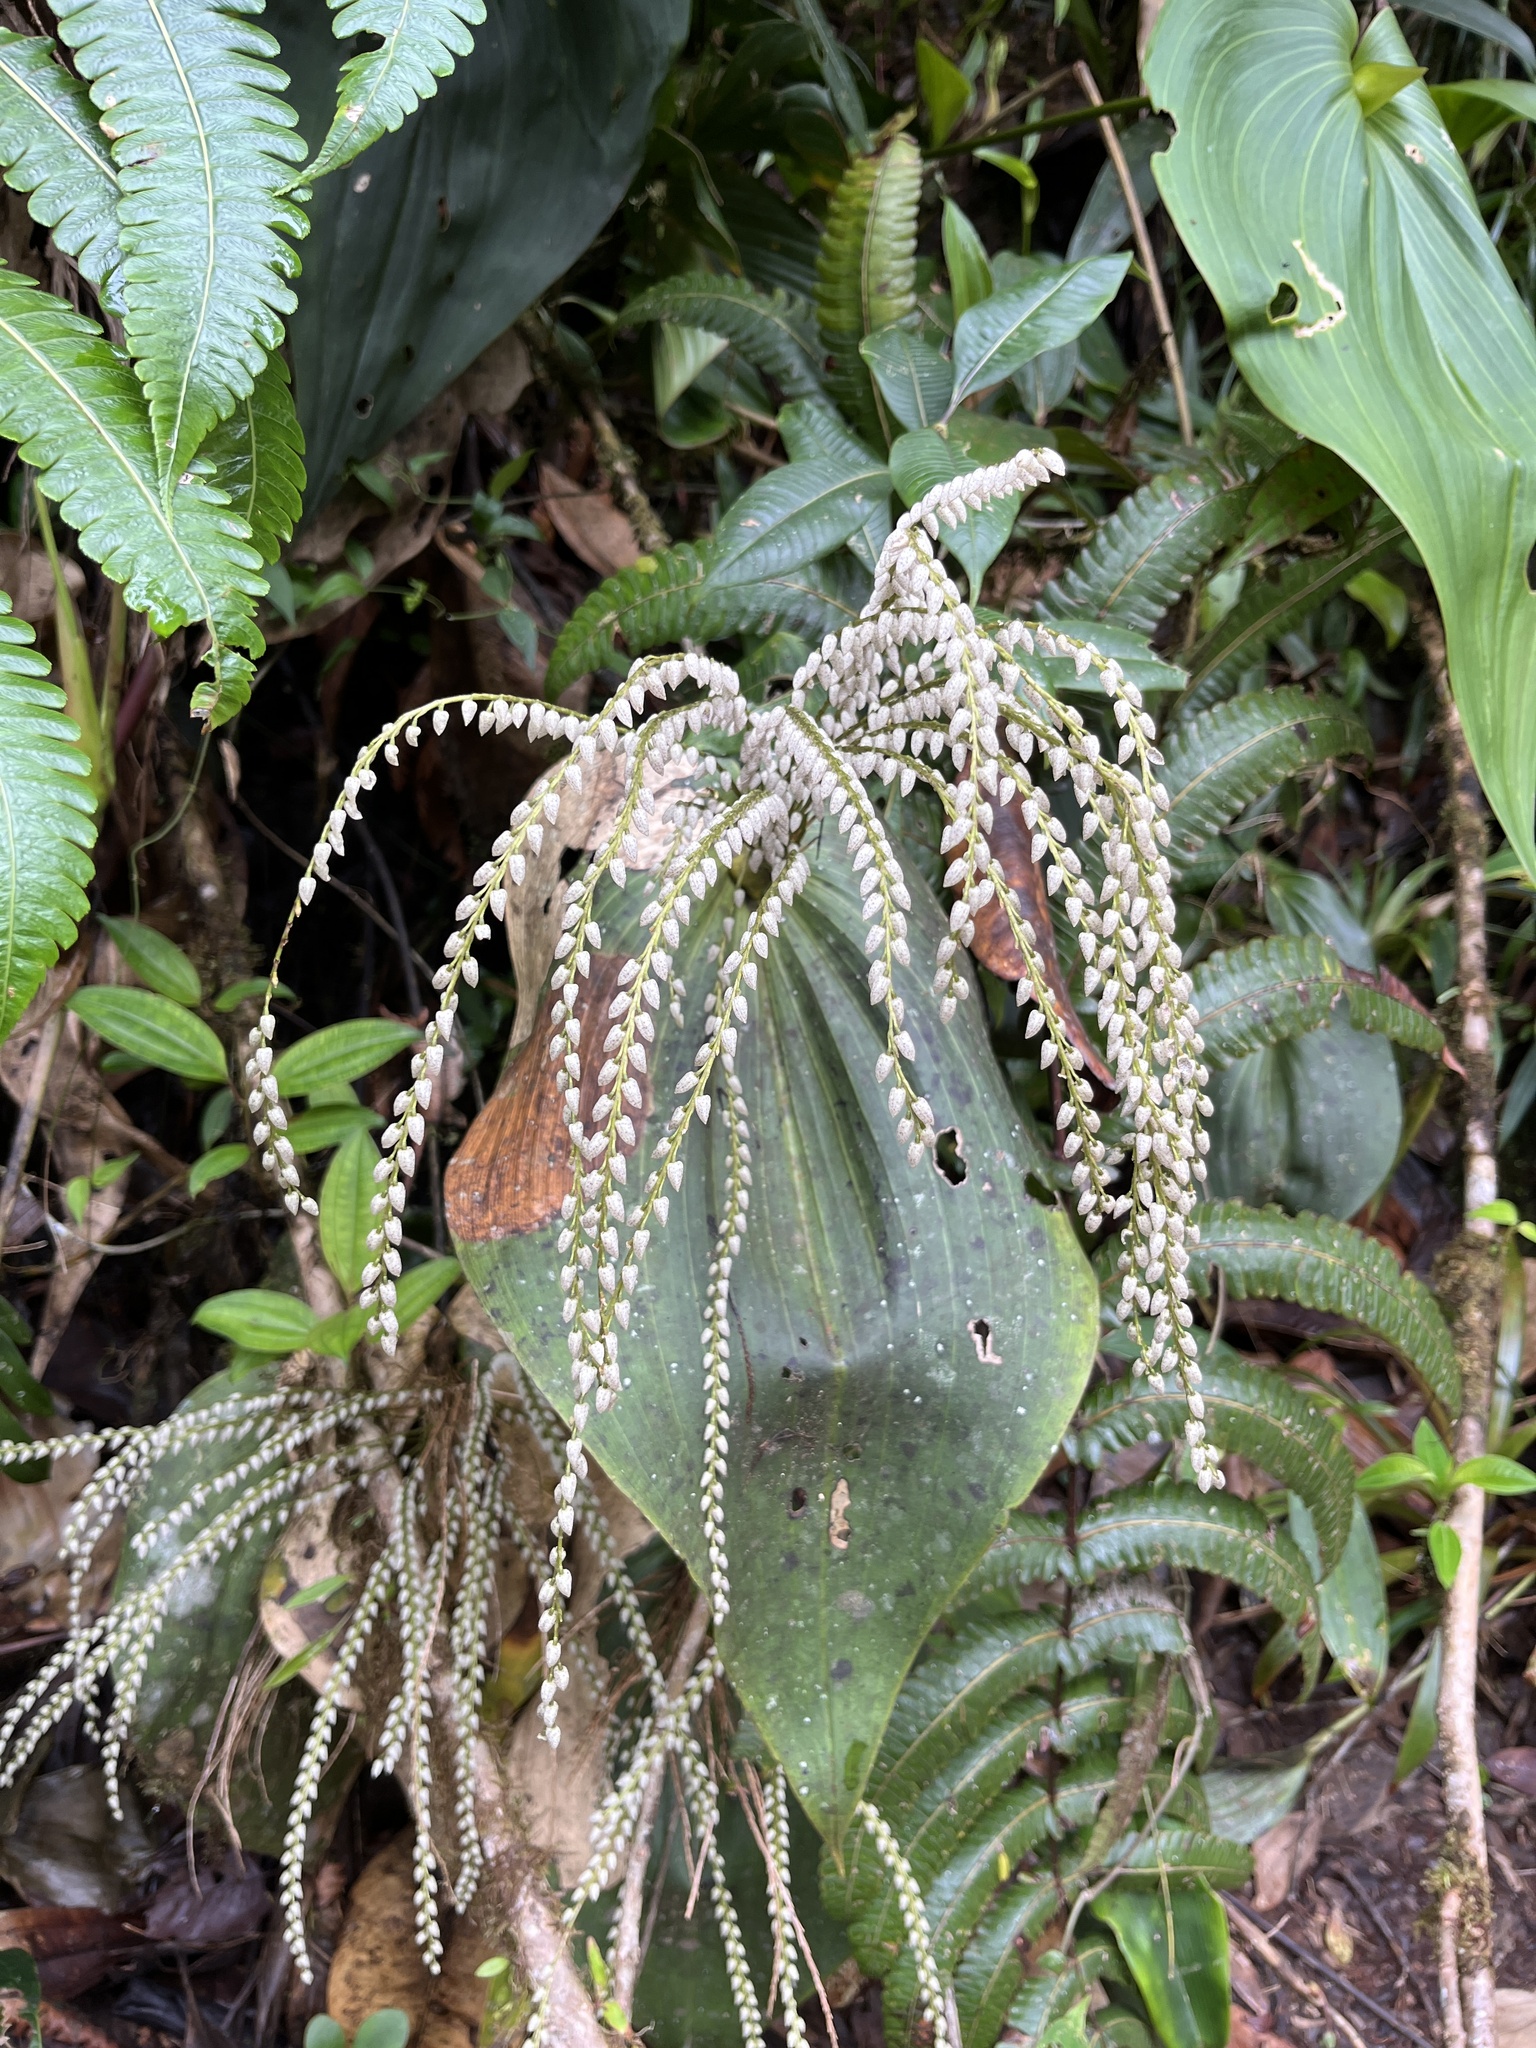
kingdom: Plantae
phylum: Tracheophyta
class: Liliopsida
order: Asparagales
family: Orchidaceae
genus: Pleurothallis
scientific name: Pleurothallis colossus
